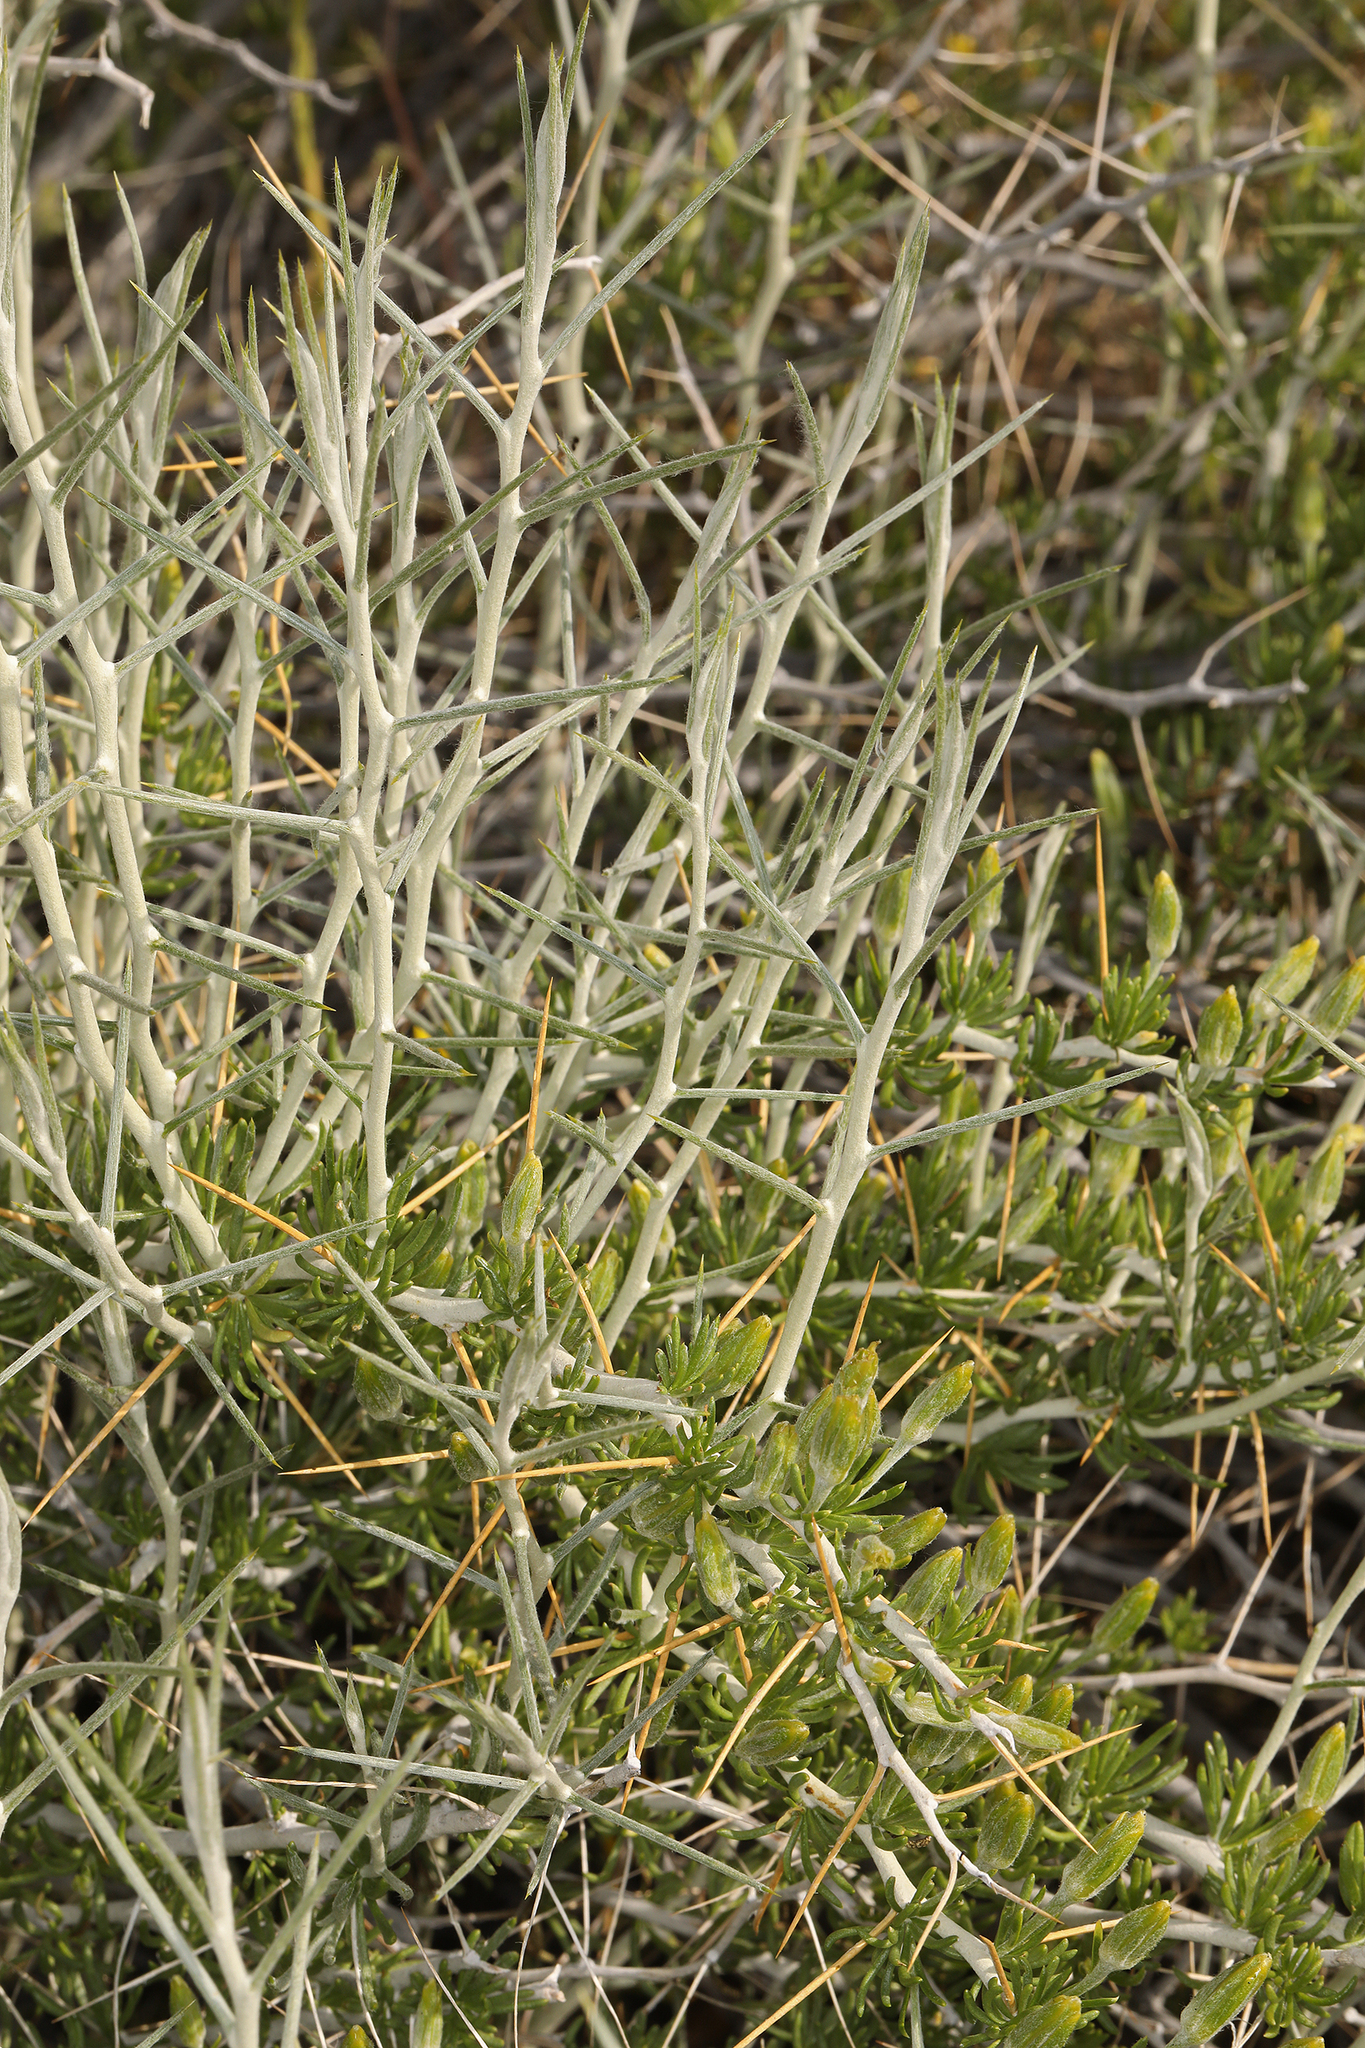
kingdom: Plantae
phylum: Tracheophyta
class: Magnoliopsida
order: Asterales
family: Asteraceae
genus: Tetradymia
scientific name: Tetradymia axillaris
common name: Long-spine horsebrush
